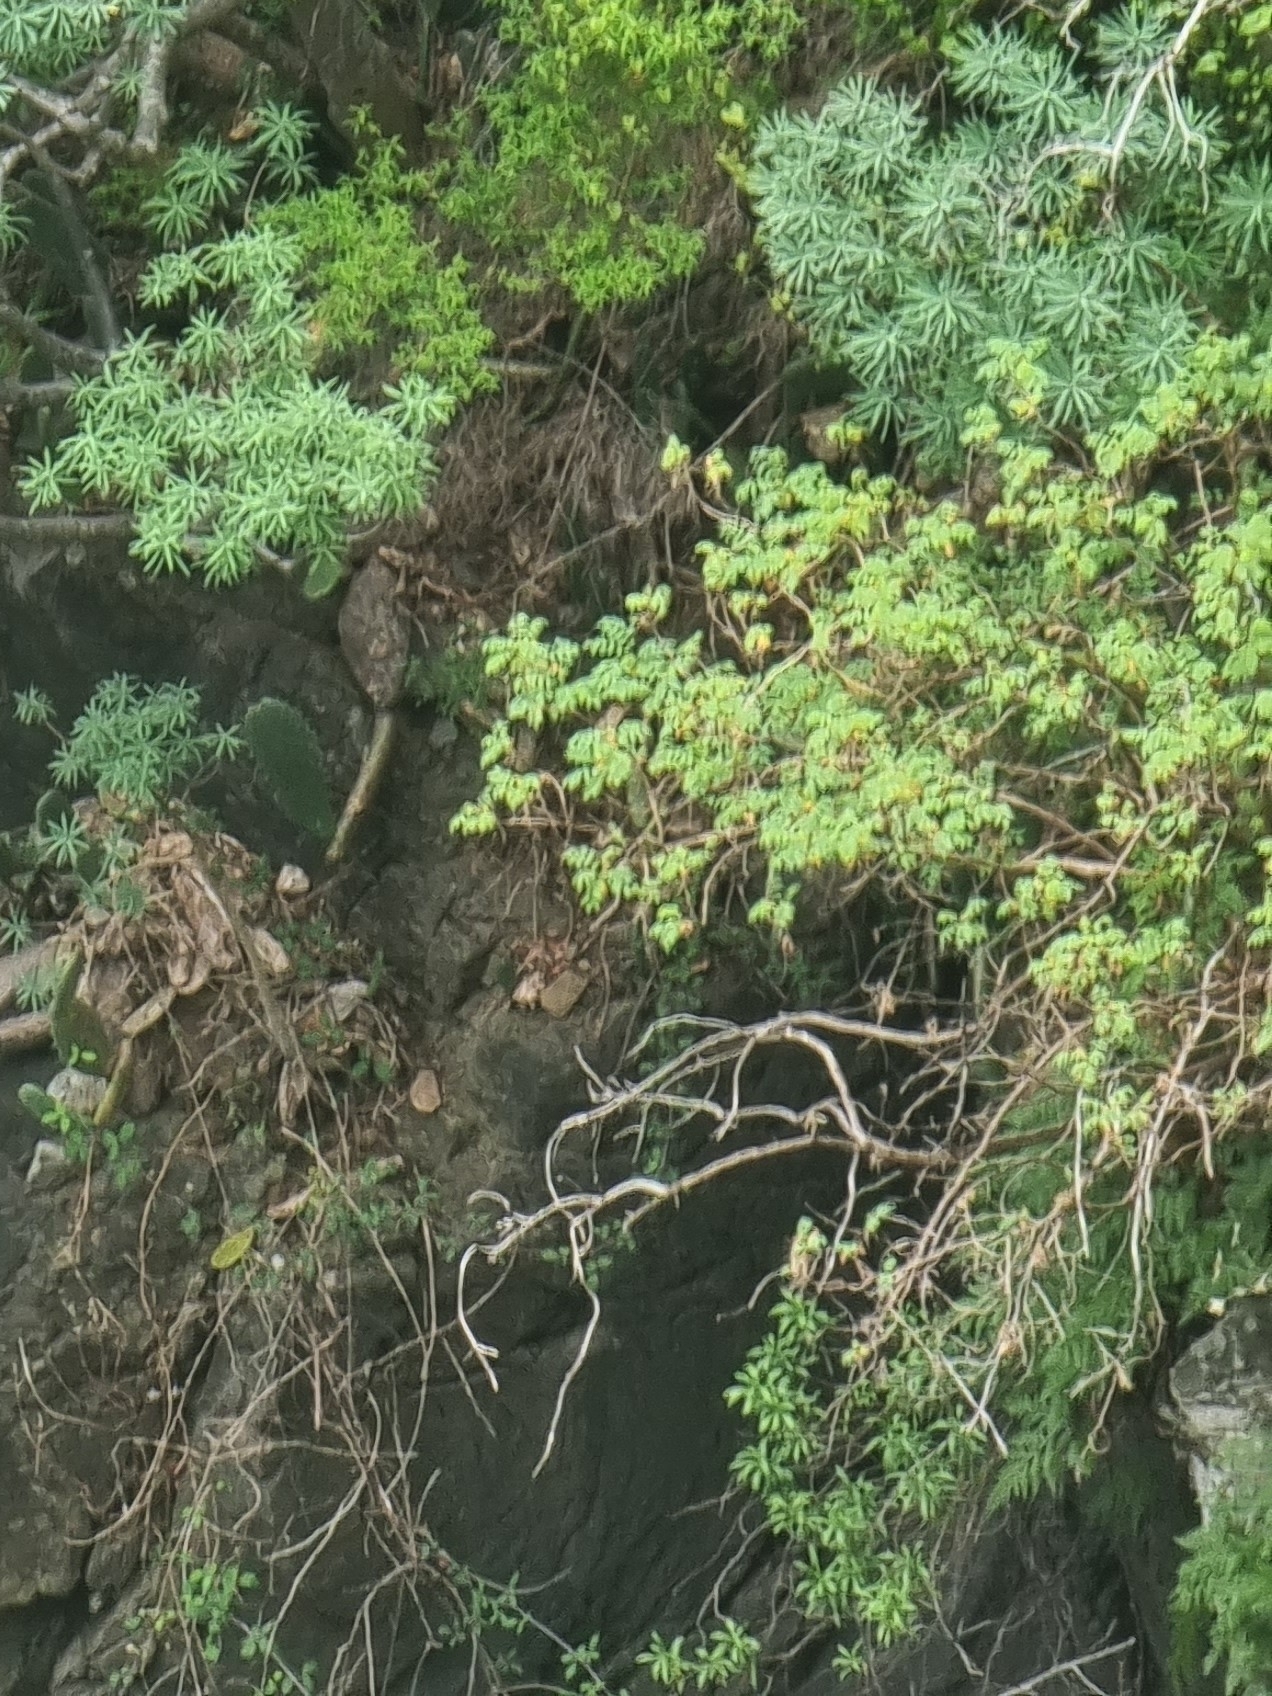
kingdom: Plantae
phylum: Tracheophyta
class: Magnoliopsida
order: Rosales
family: Rosaceae
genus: Marcetella
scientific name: Marcetella maderensis
